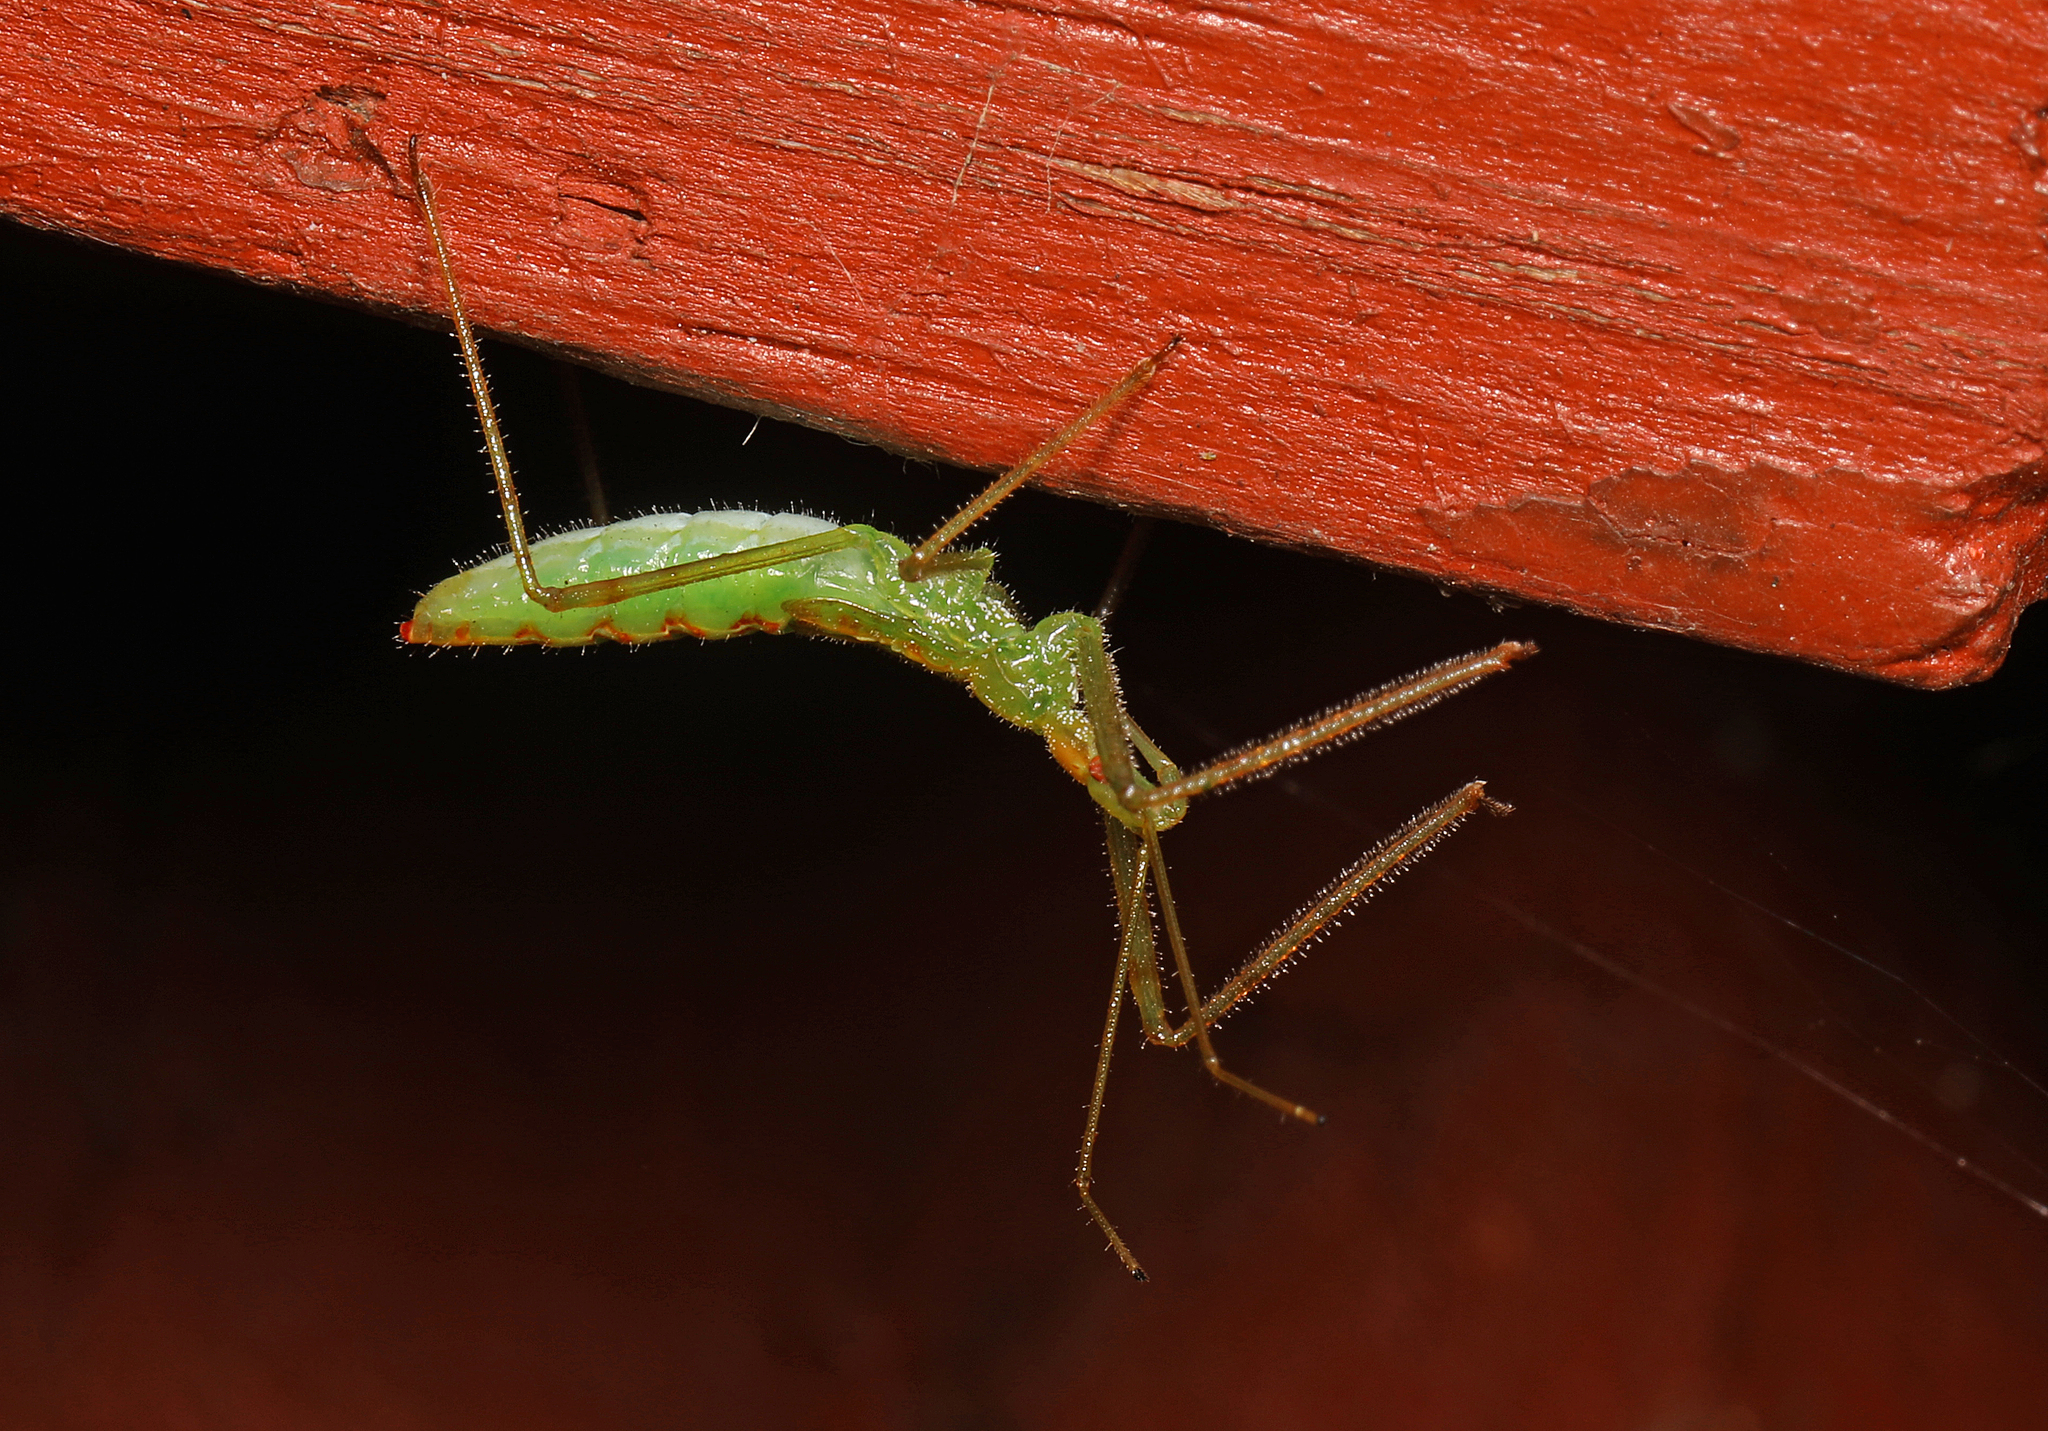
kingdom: Animalia
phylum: Arthropoda
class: Insecta
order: Hemiptera
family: Reduviidae
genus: Zelus
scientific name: Zelus luridus
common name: Pale green assassin bug
